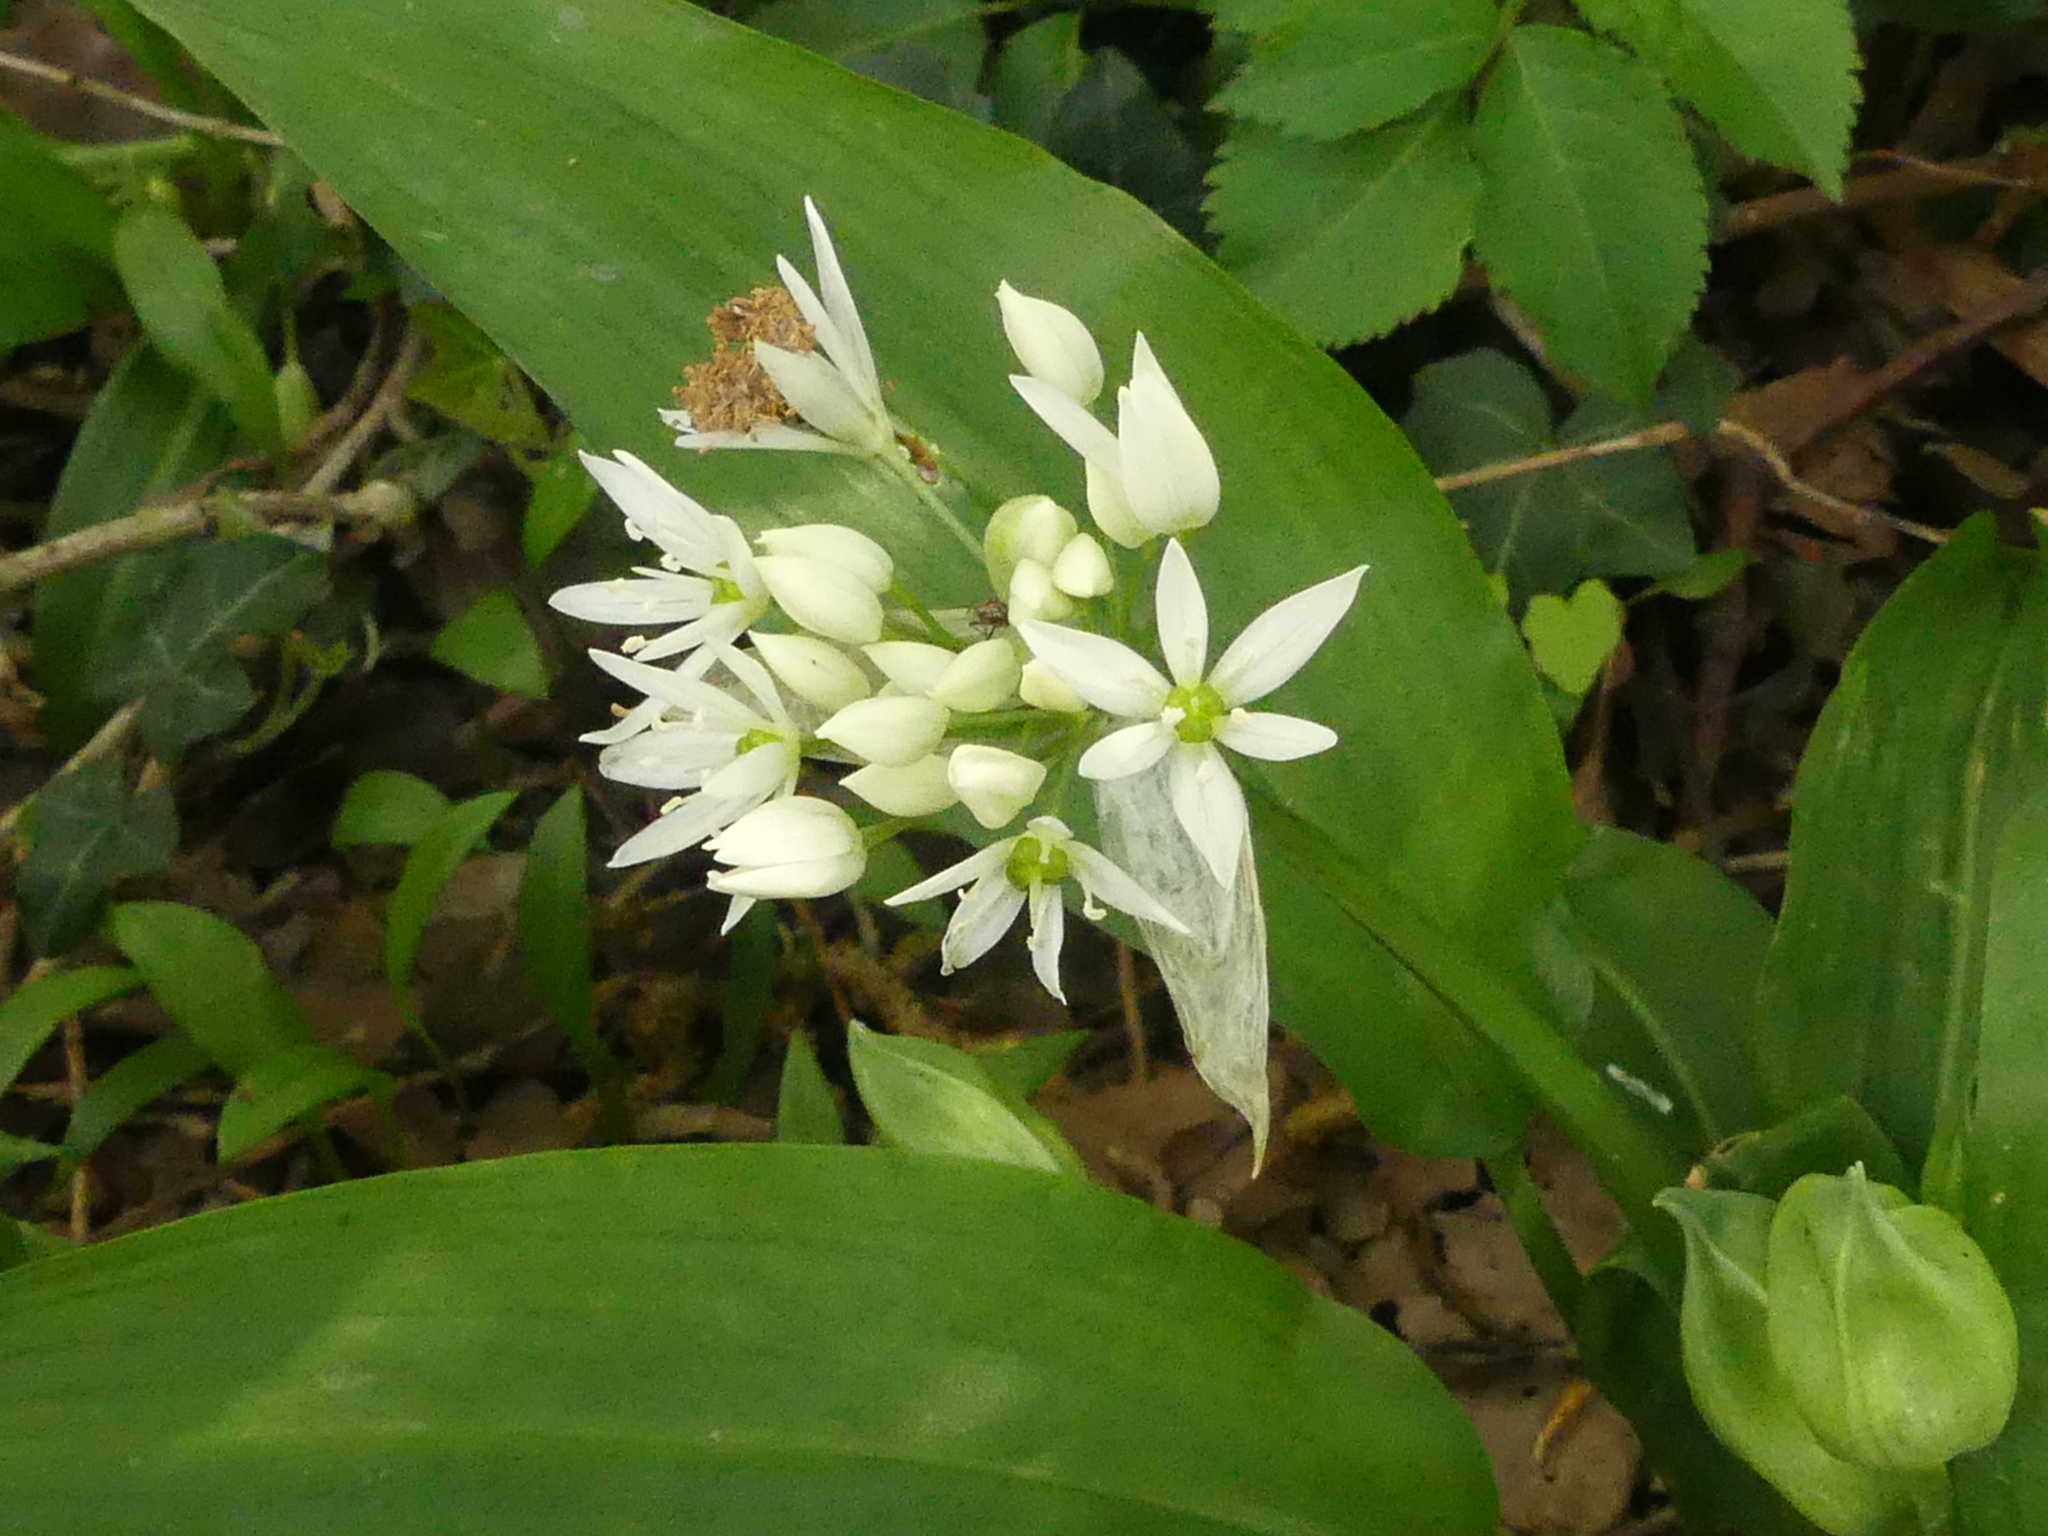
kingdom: Plantae
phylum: Tracheophyta
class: Liliopsida
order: Asparagales
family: Amaryllidaceae
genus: Allium
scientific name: Allium ursinum
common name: Ramsons
